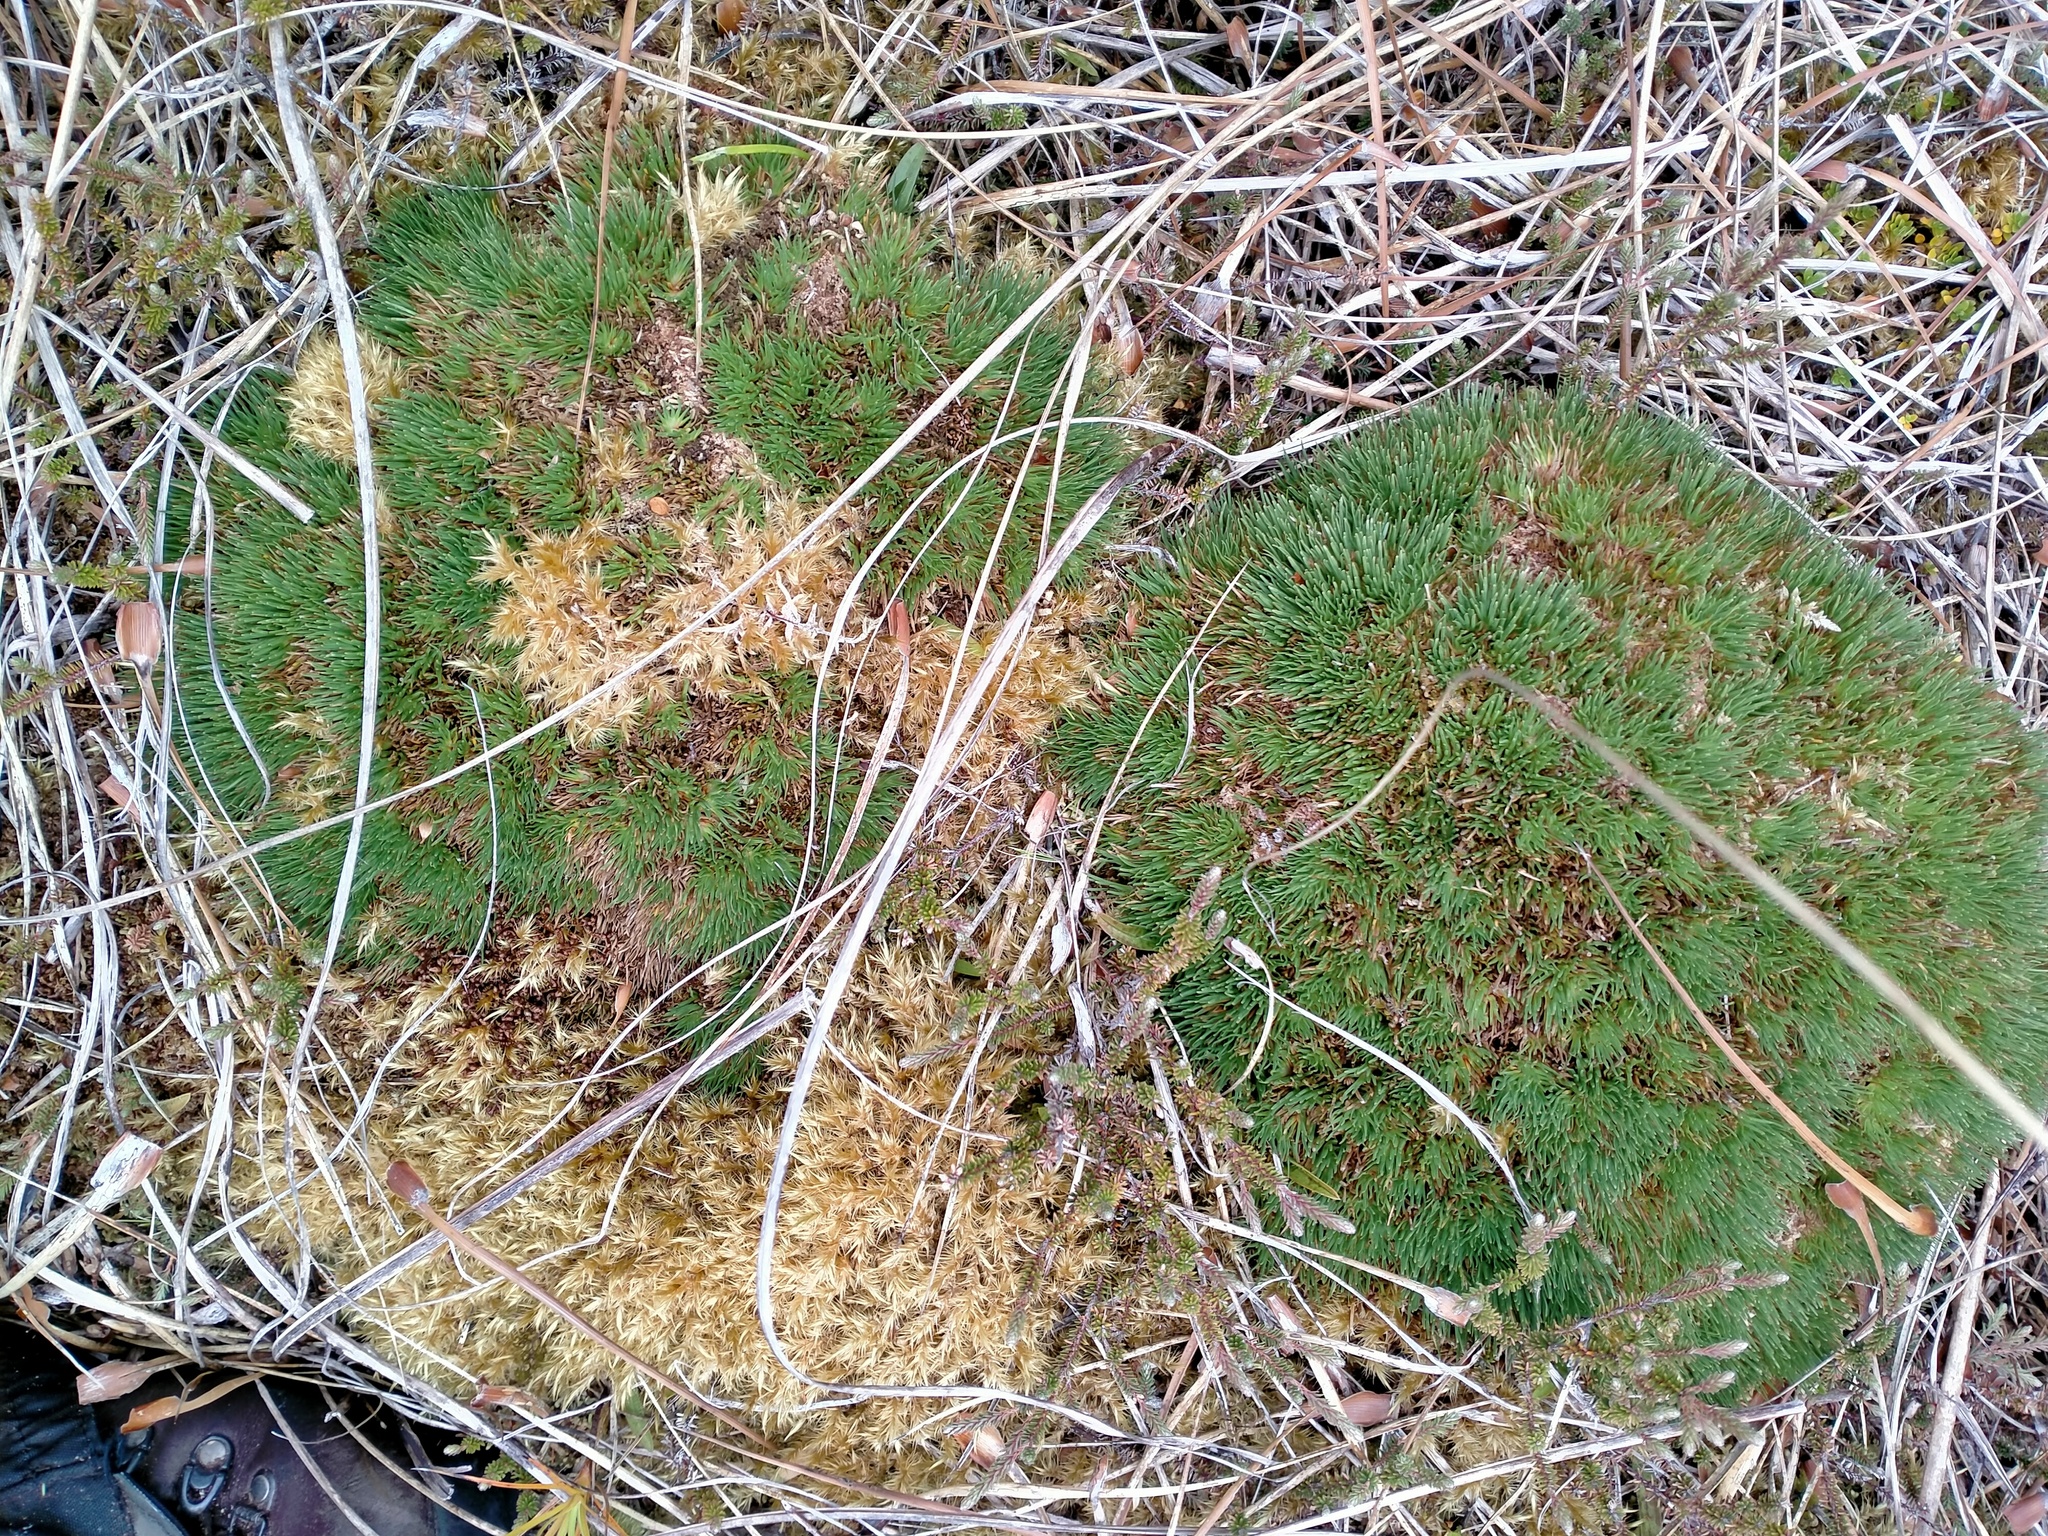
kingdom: Plantae
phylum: Tracheophyta
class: Liliopsida
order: Poales
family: Cyperaceae
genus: Oreobolus
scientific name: Oreobolus pectinatus
